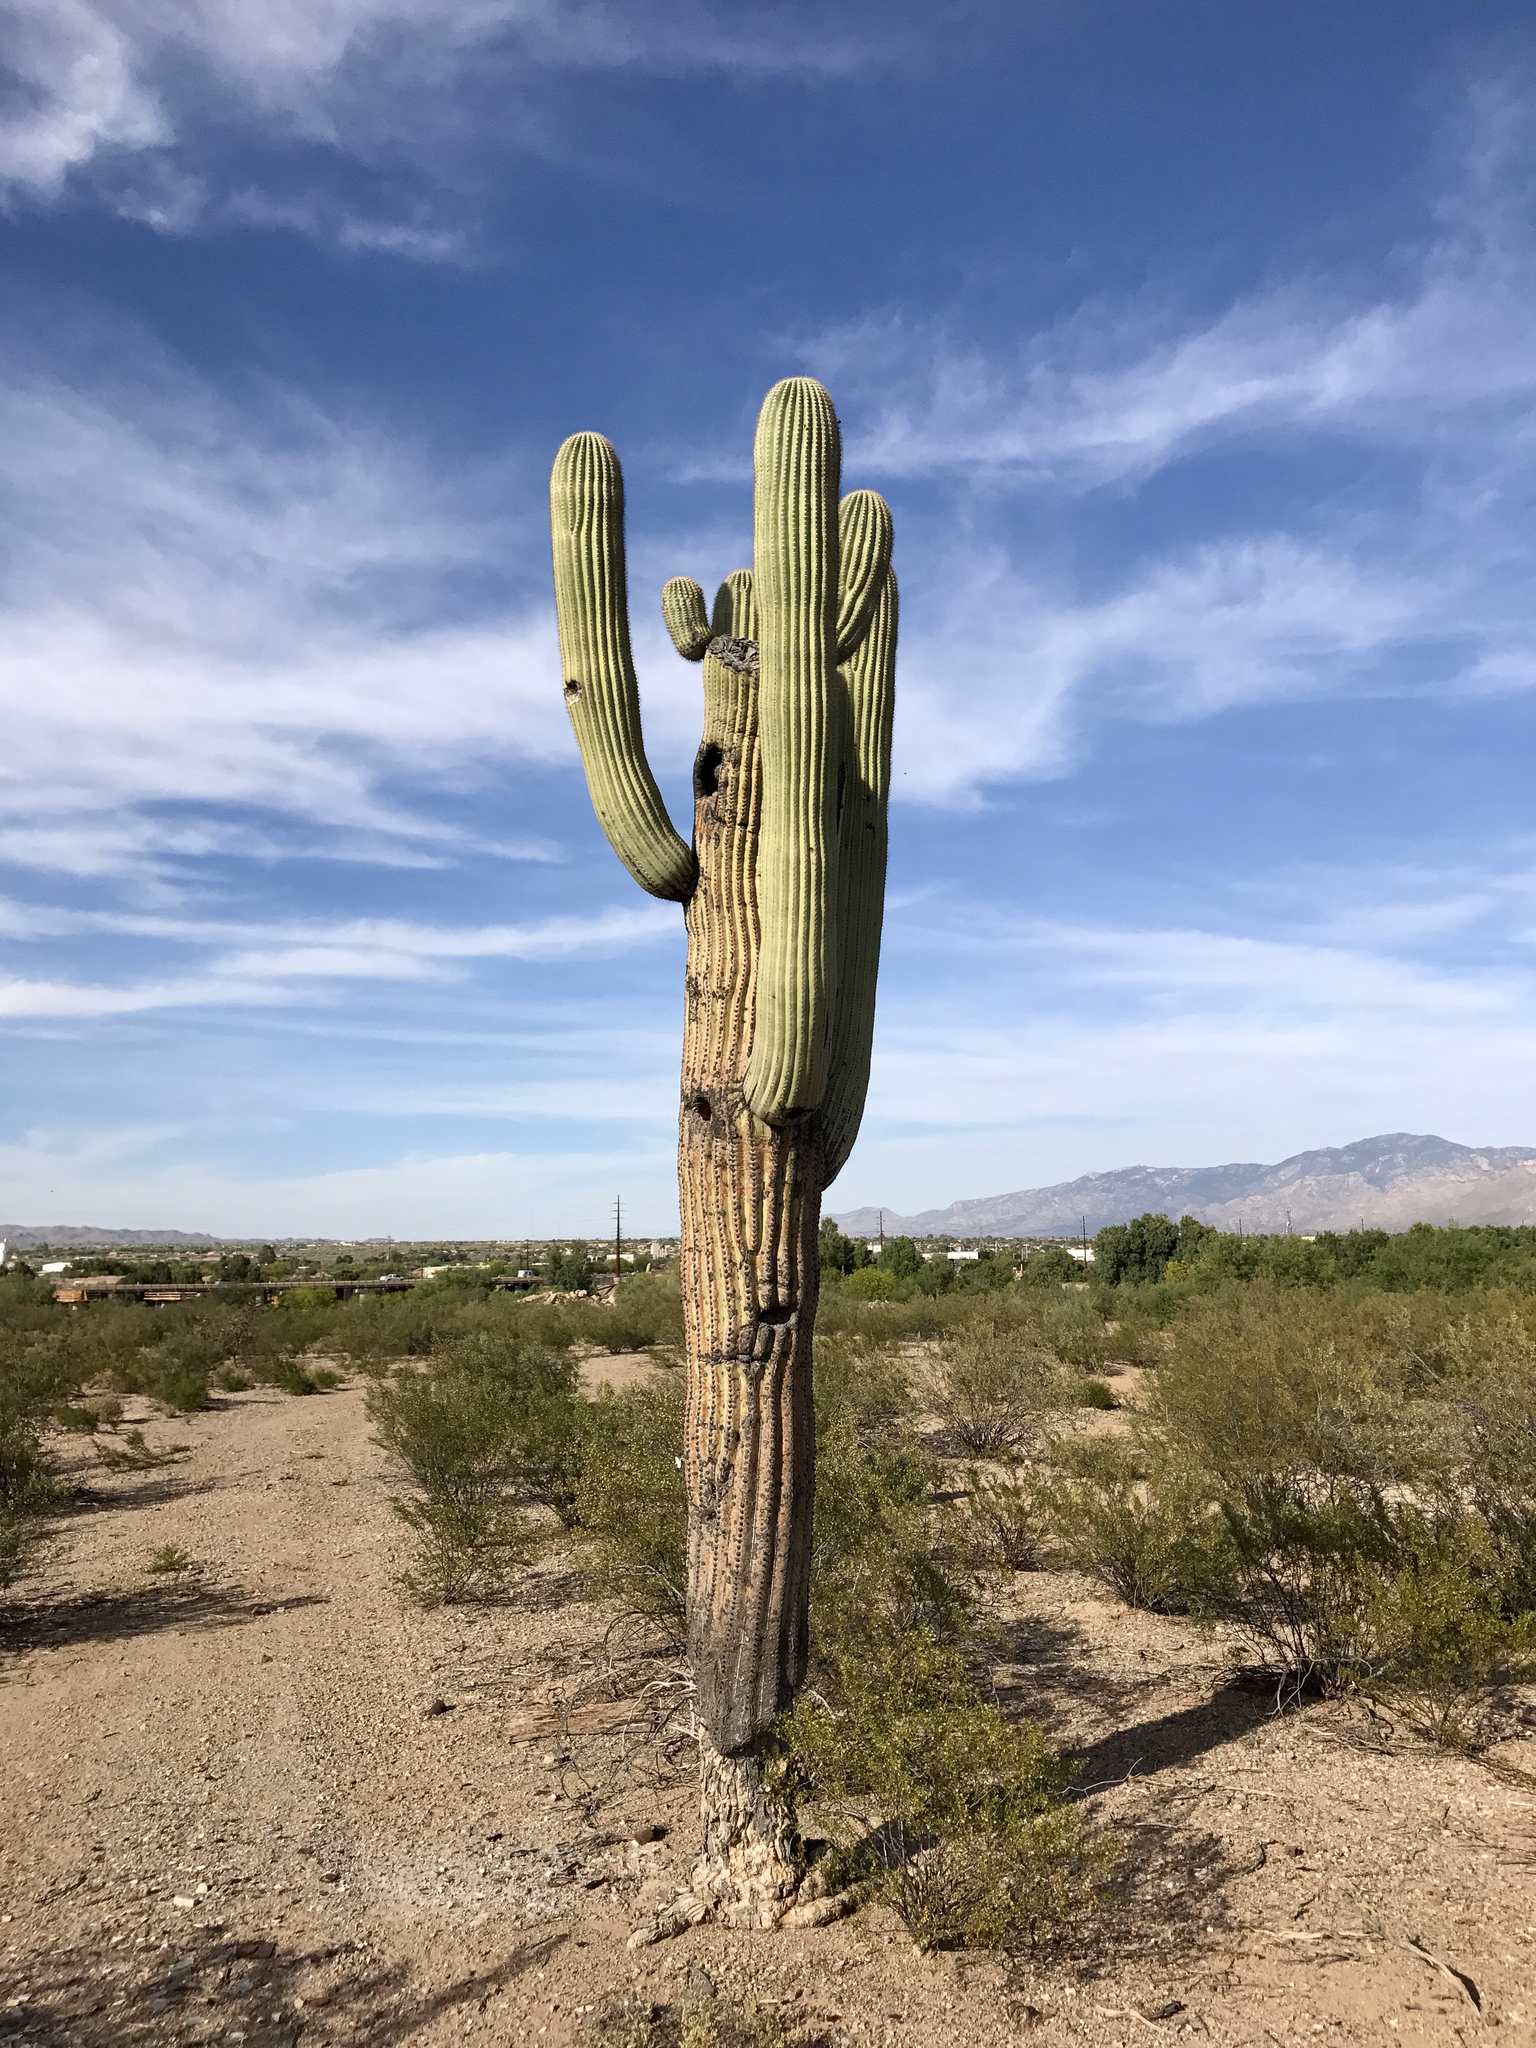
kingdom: Plantae
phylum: Tracheophyta
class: Magnoliopsida
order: Caryophyllales
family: Cactaceae
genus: Carnegiea
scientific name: Carnegiea gigantea
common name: Saguaro
